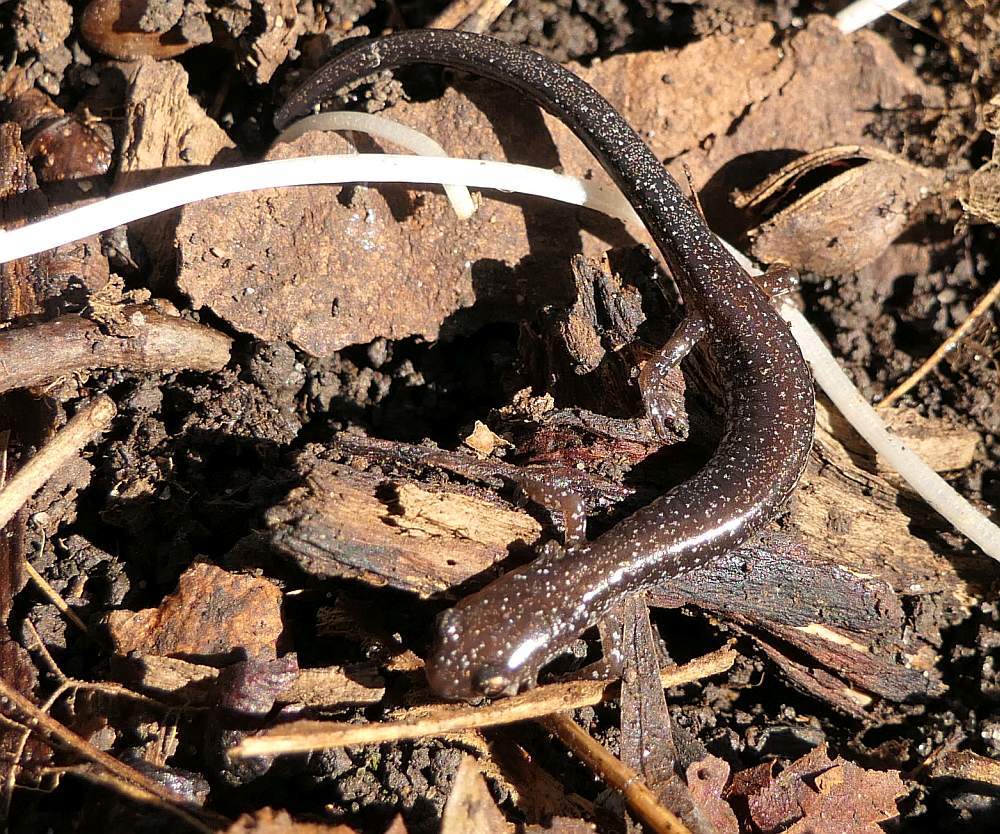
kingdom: Animalia
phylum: Chordata
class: Amphibia
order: Caudata
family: Plethodontidae
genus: Plethodon
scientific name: Plethodon cinereus
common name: Redback salamander
